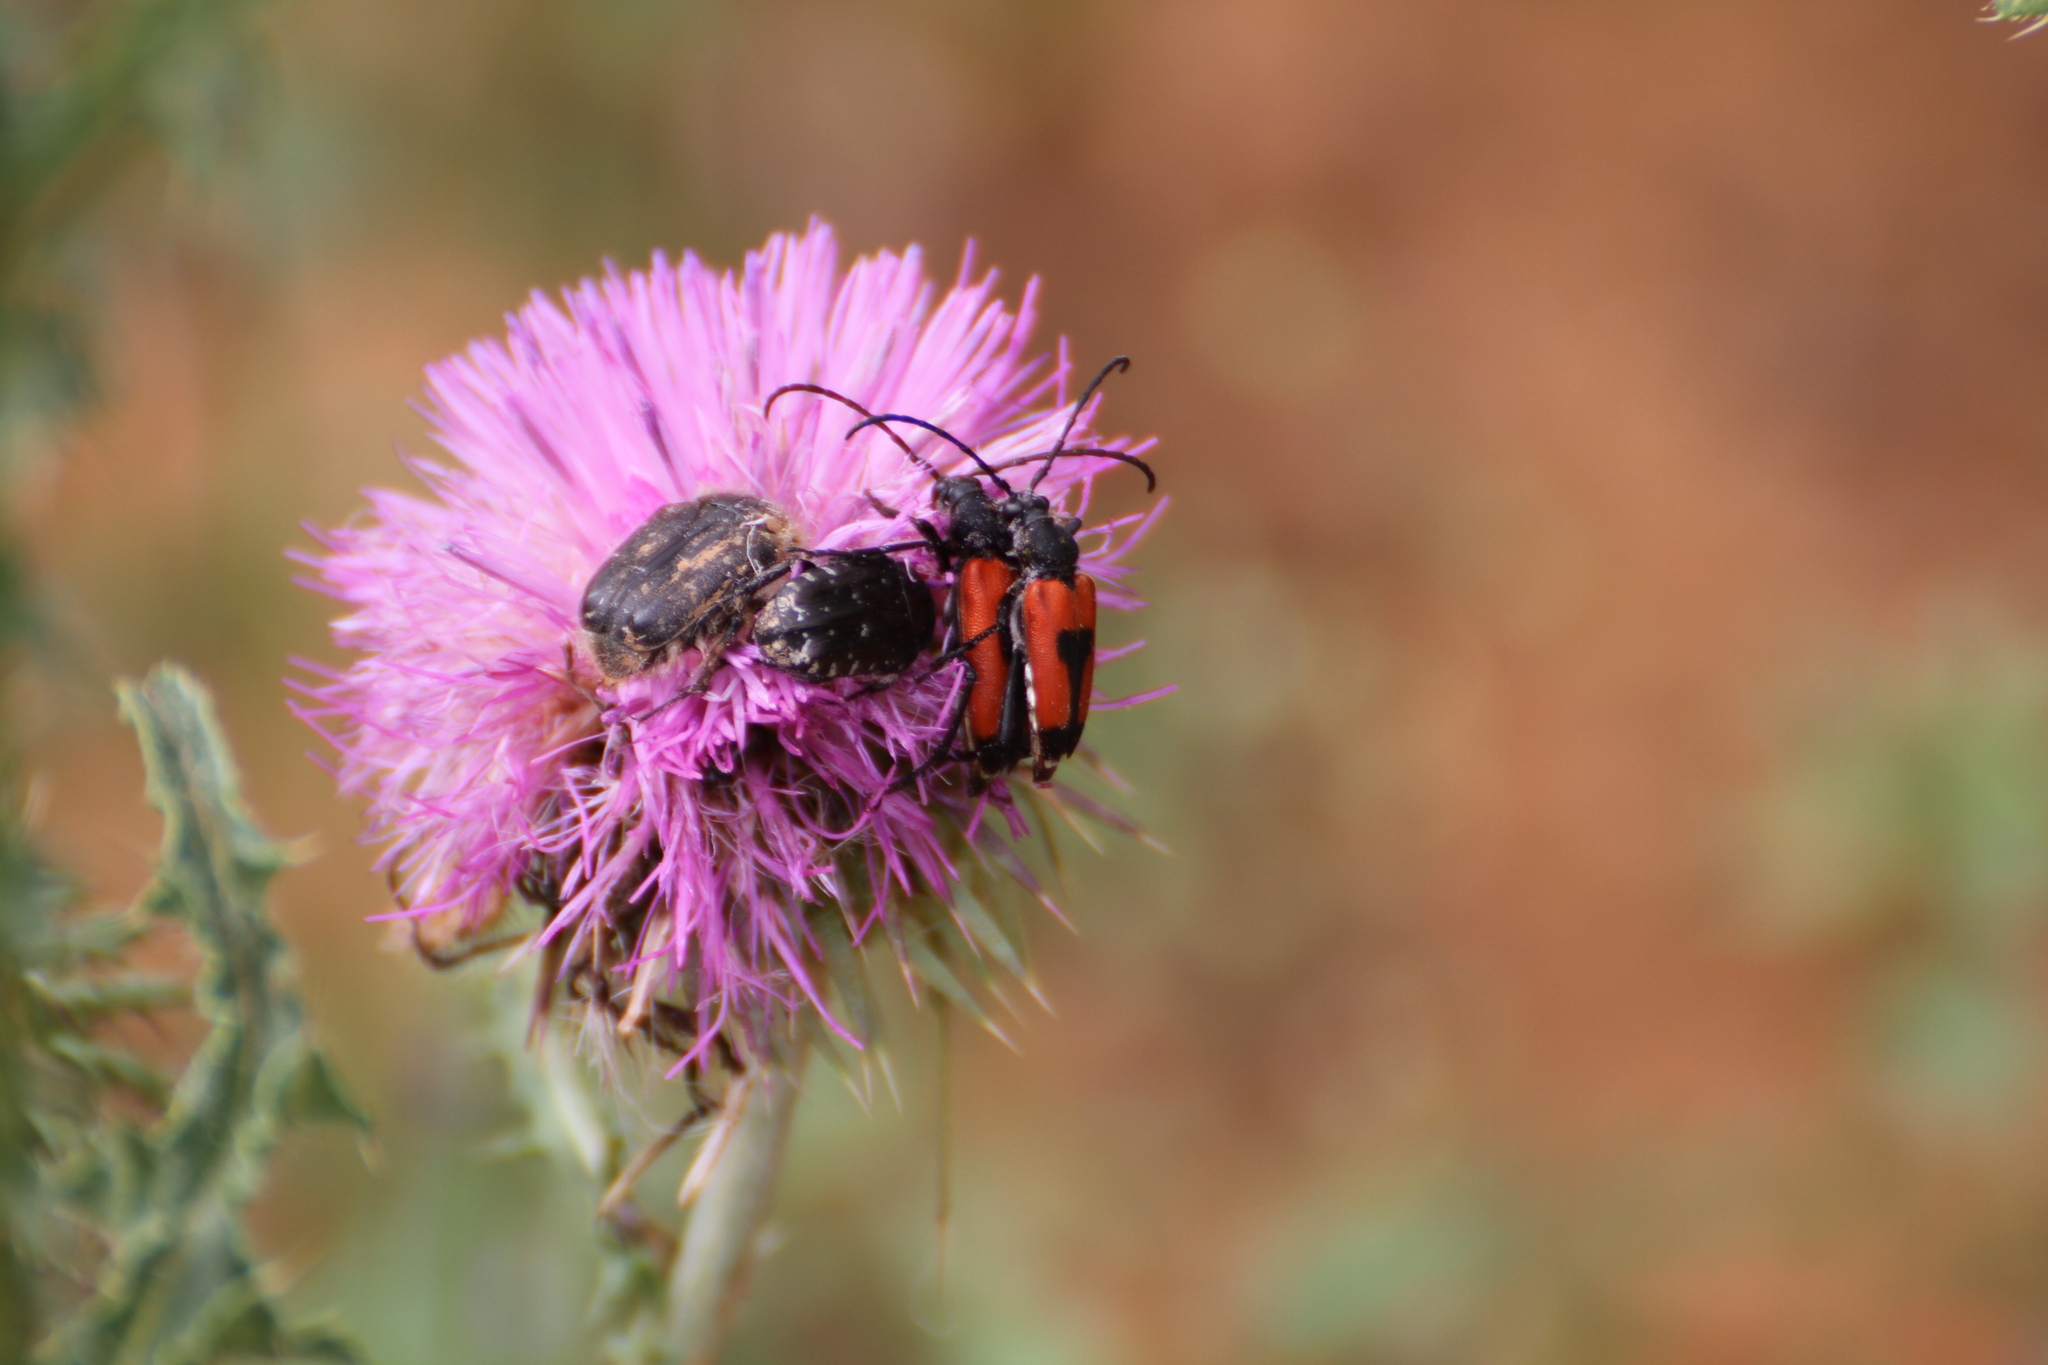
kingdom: Animalia
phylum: Arthropoda
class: Insecta
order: Coleoptera
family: Scarabaeidae
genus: Oxythyrea
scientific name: Oxythyrea funesta
